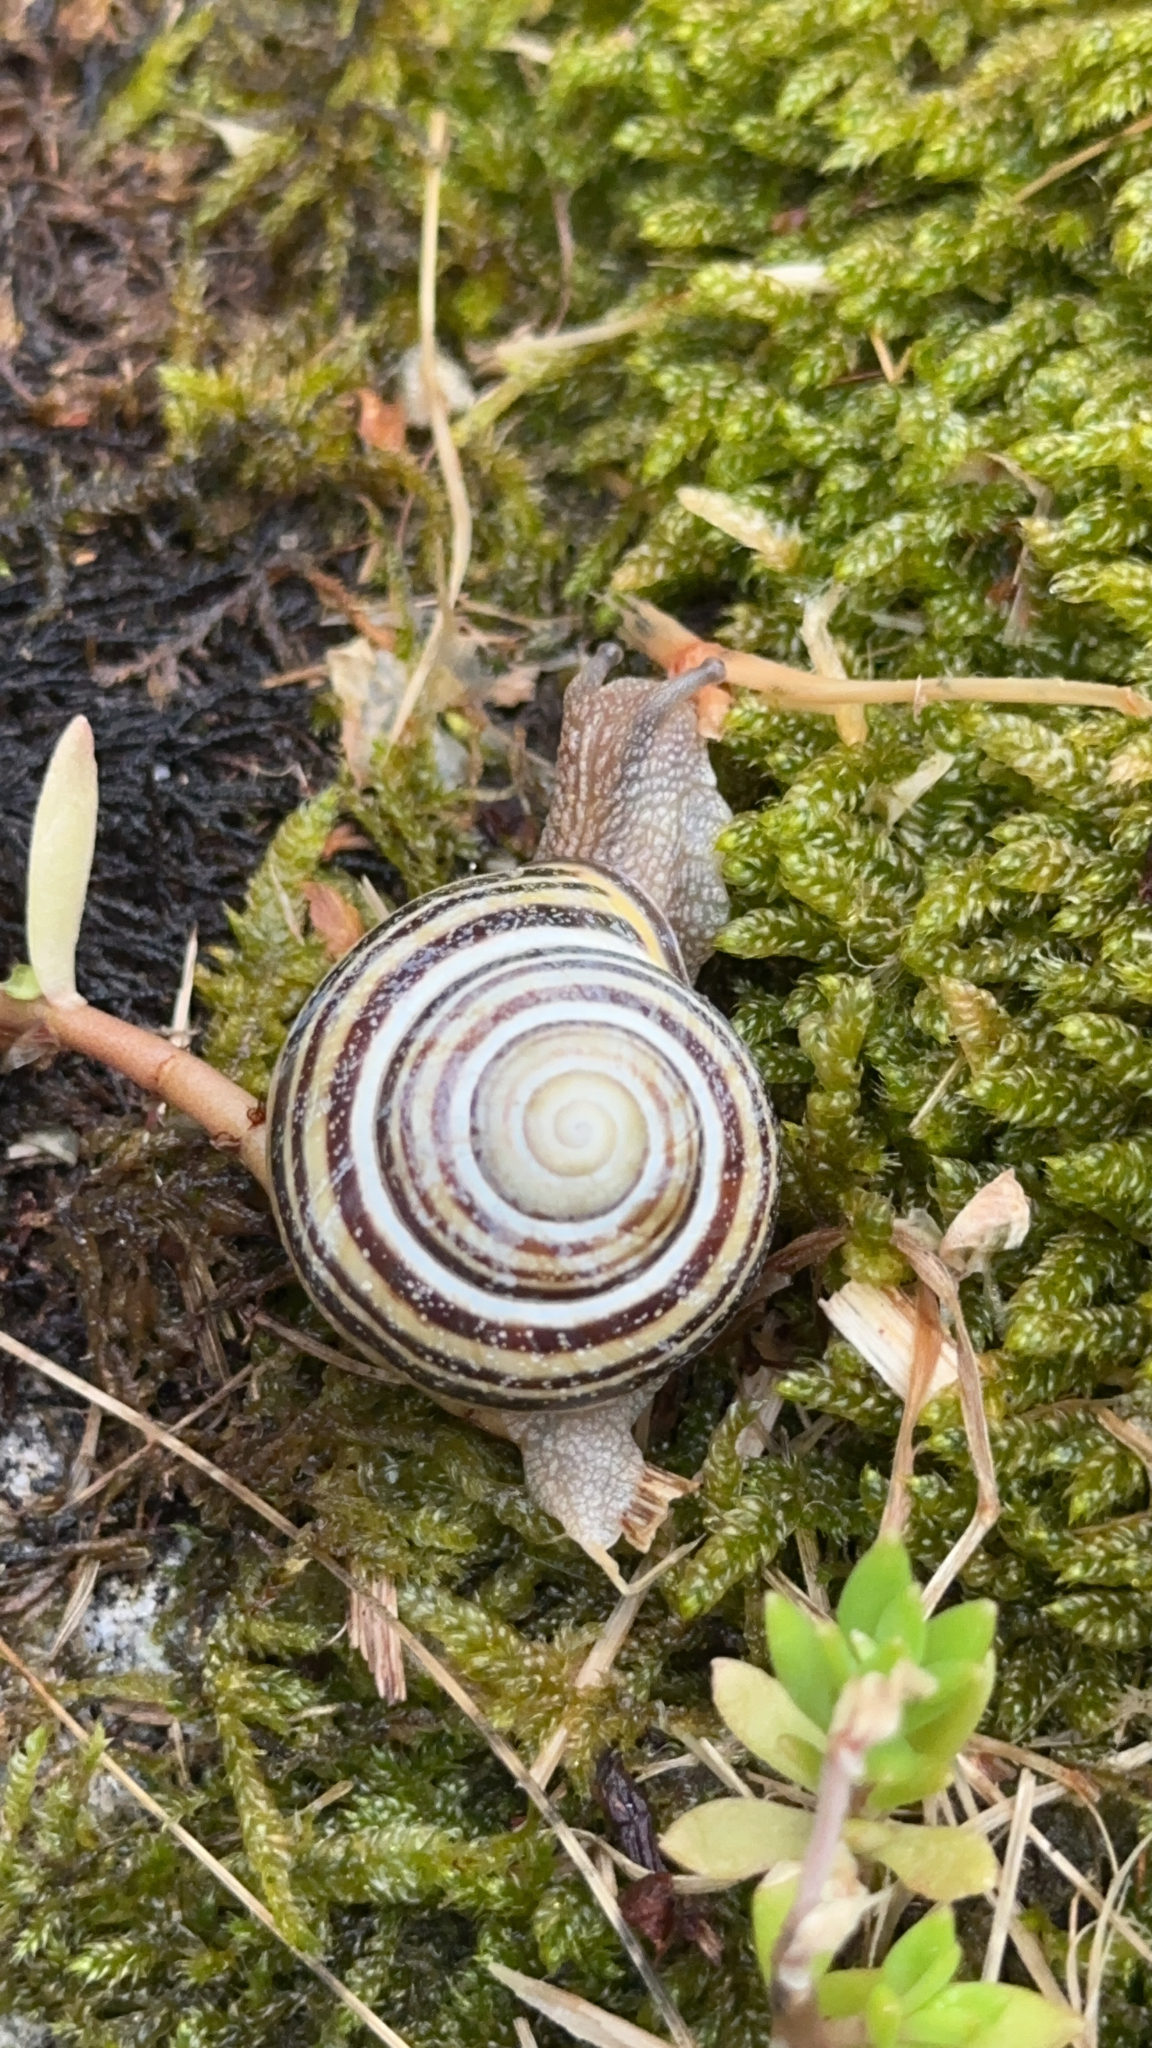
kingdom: Animalia
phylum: Mollusca
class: Gastropoda
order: Stylommatophora
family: Helicidae
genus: Cepaea
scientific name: Cepaea nemoralis
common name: Grovesnail
